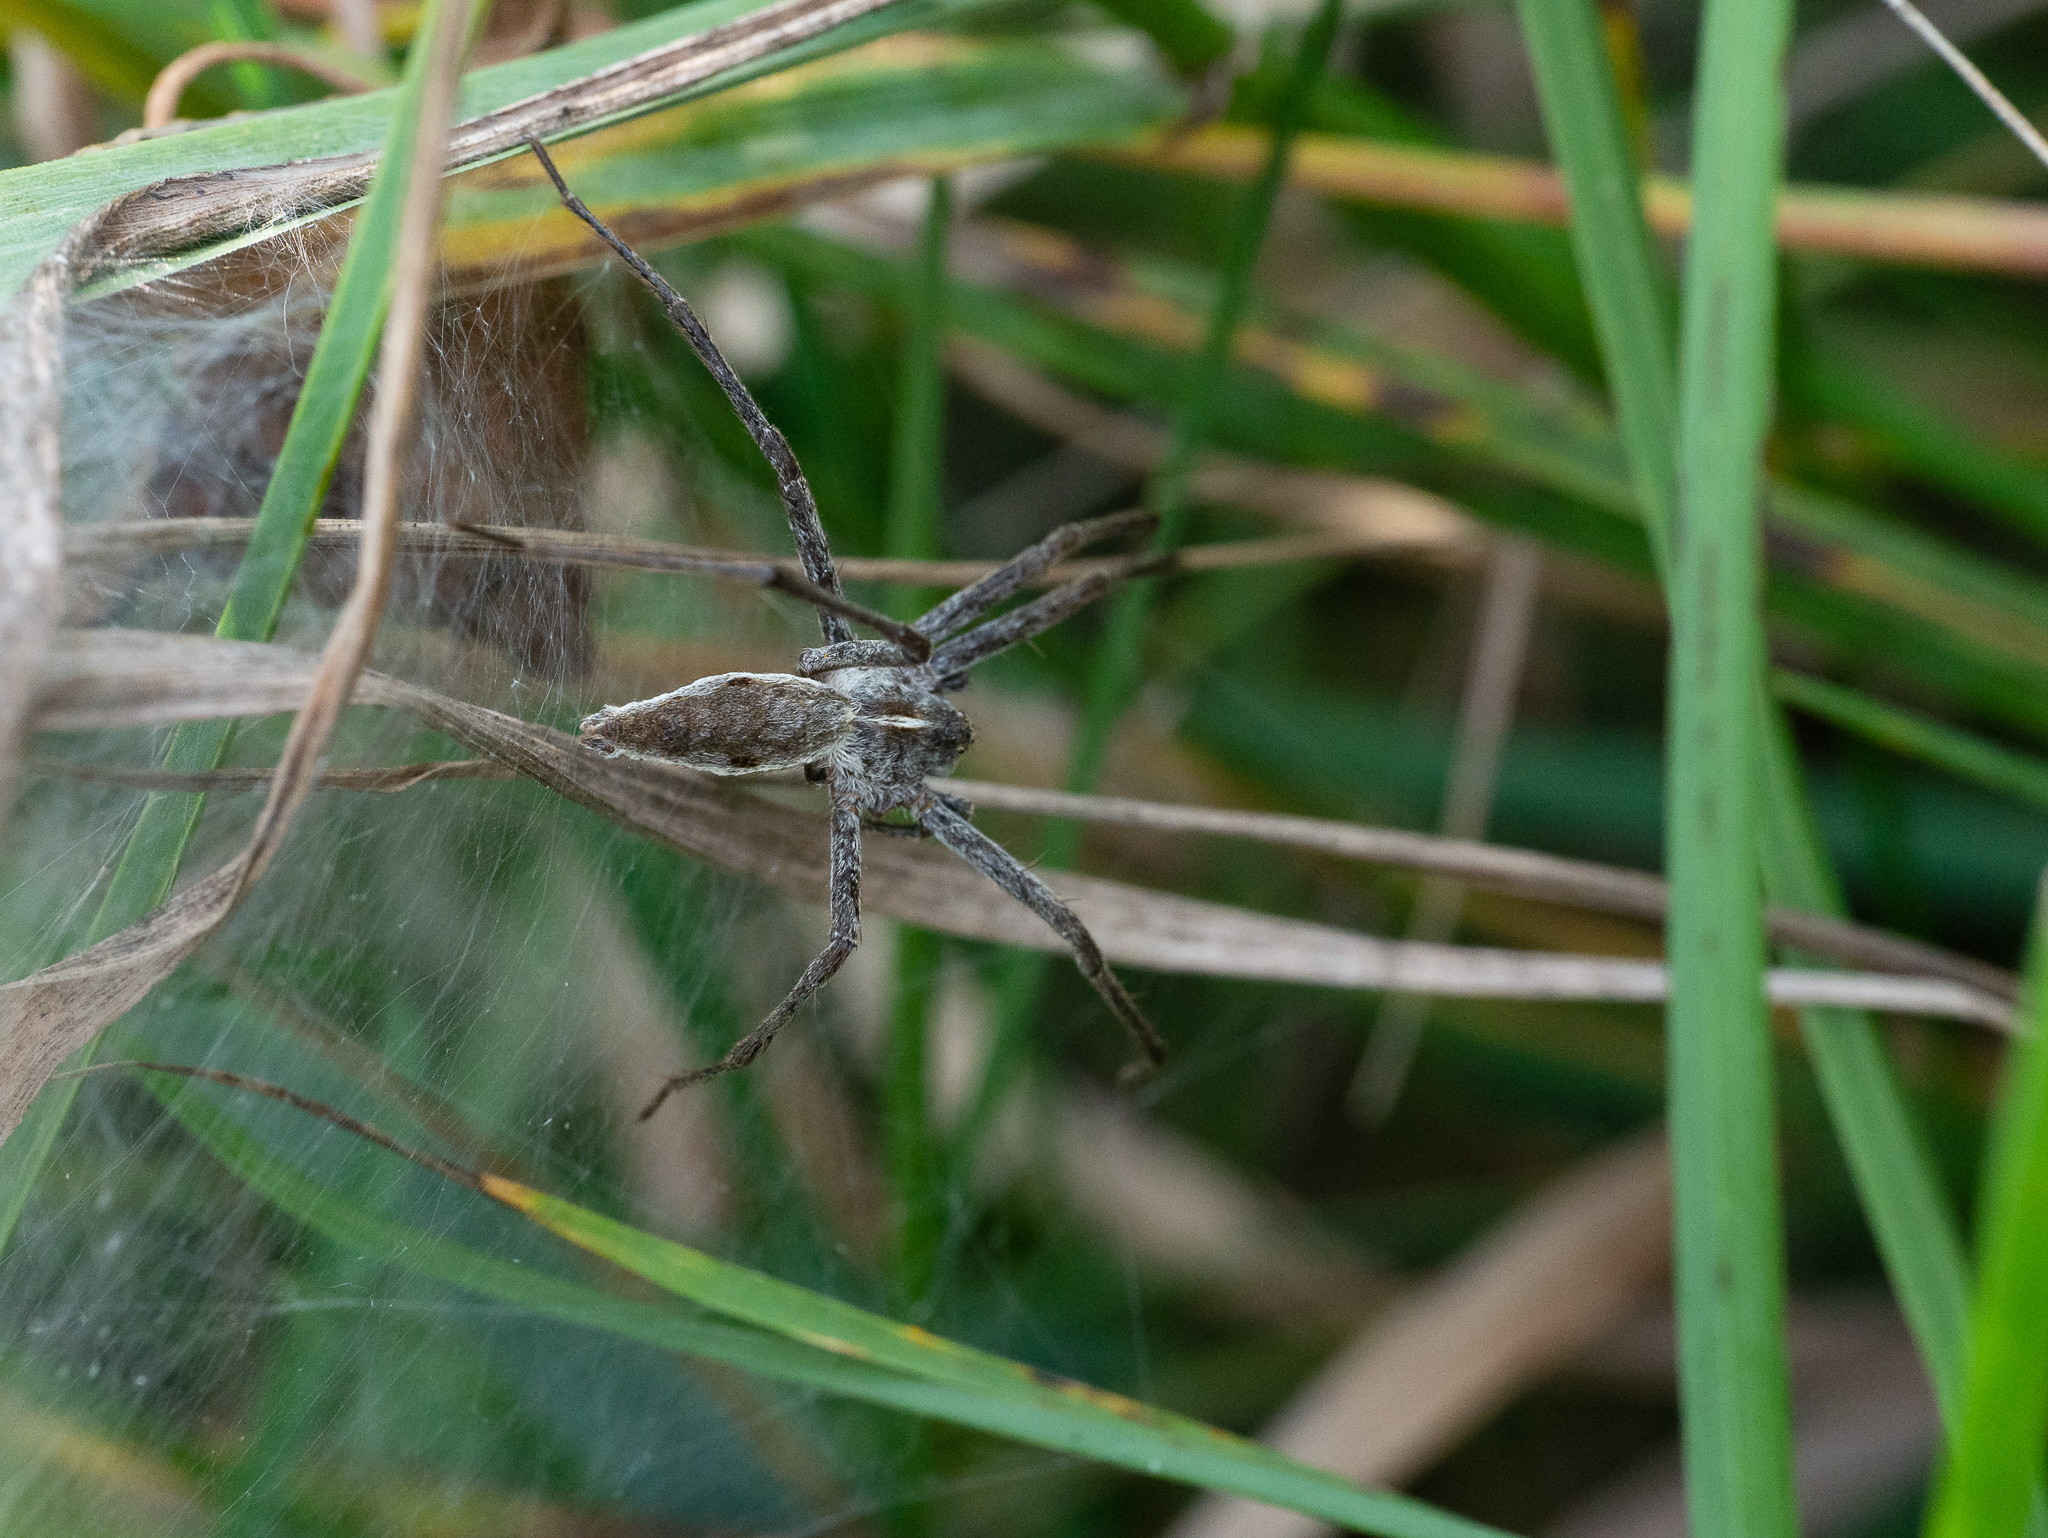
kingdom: Animalia
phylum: Arthropoda
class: Arachnida
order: Araneae
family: Pisauridae
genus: Pisaura
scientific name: Pisaura mirabilis
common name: Tent spider
